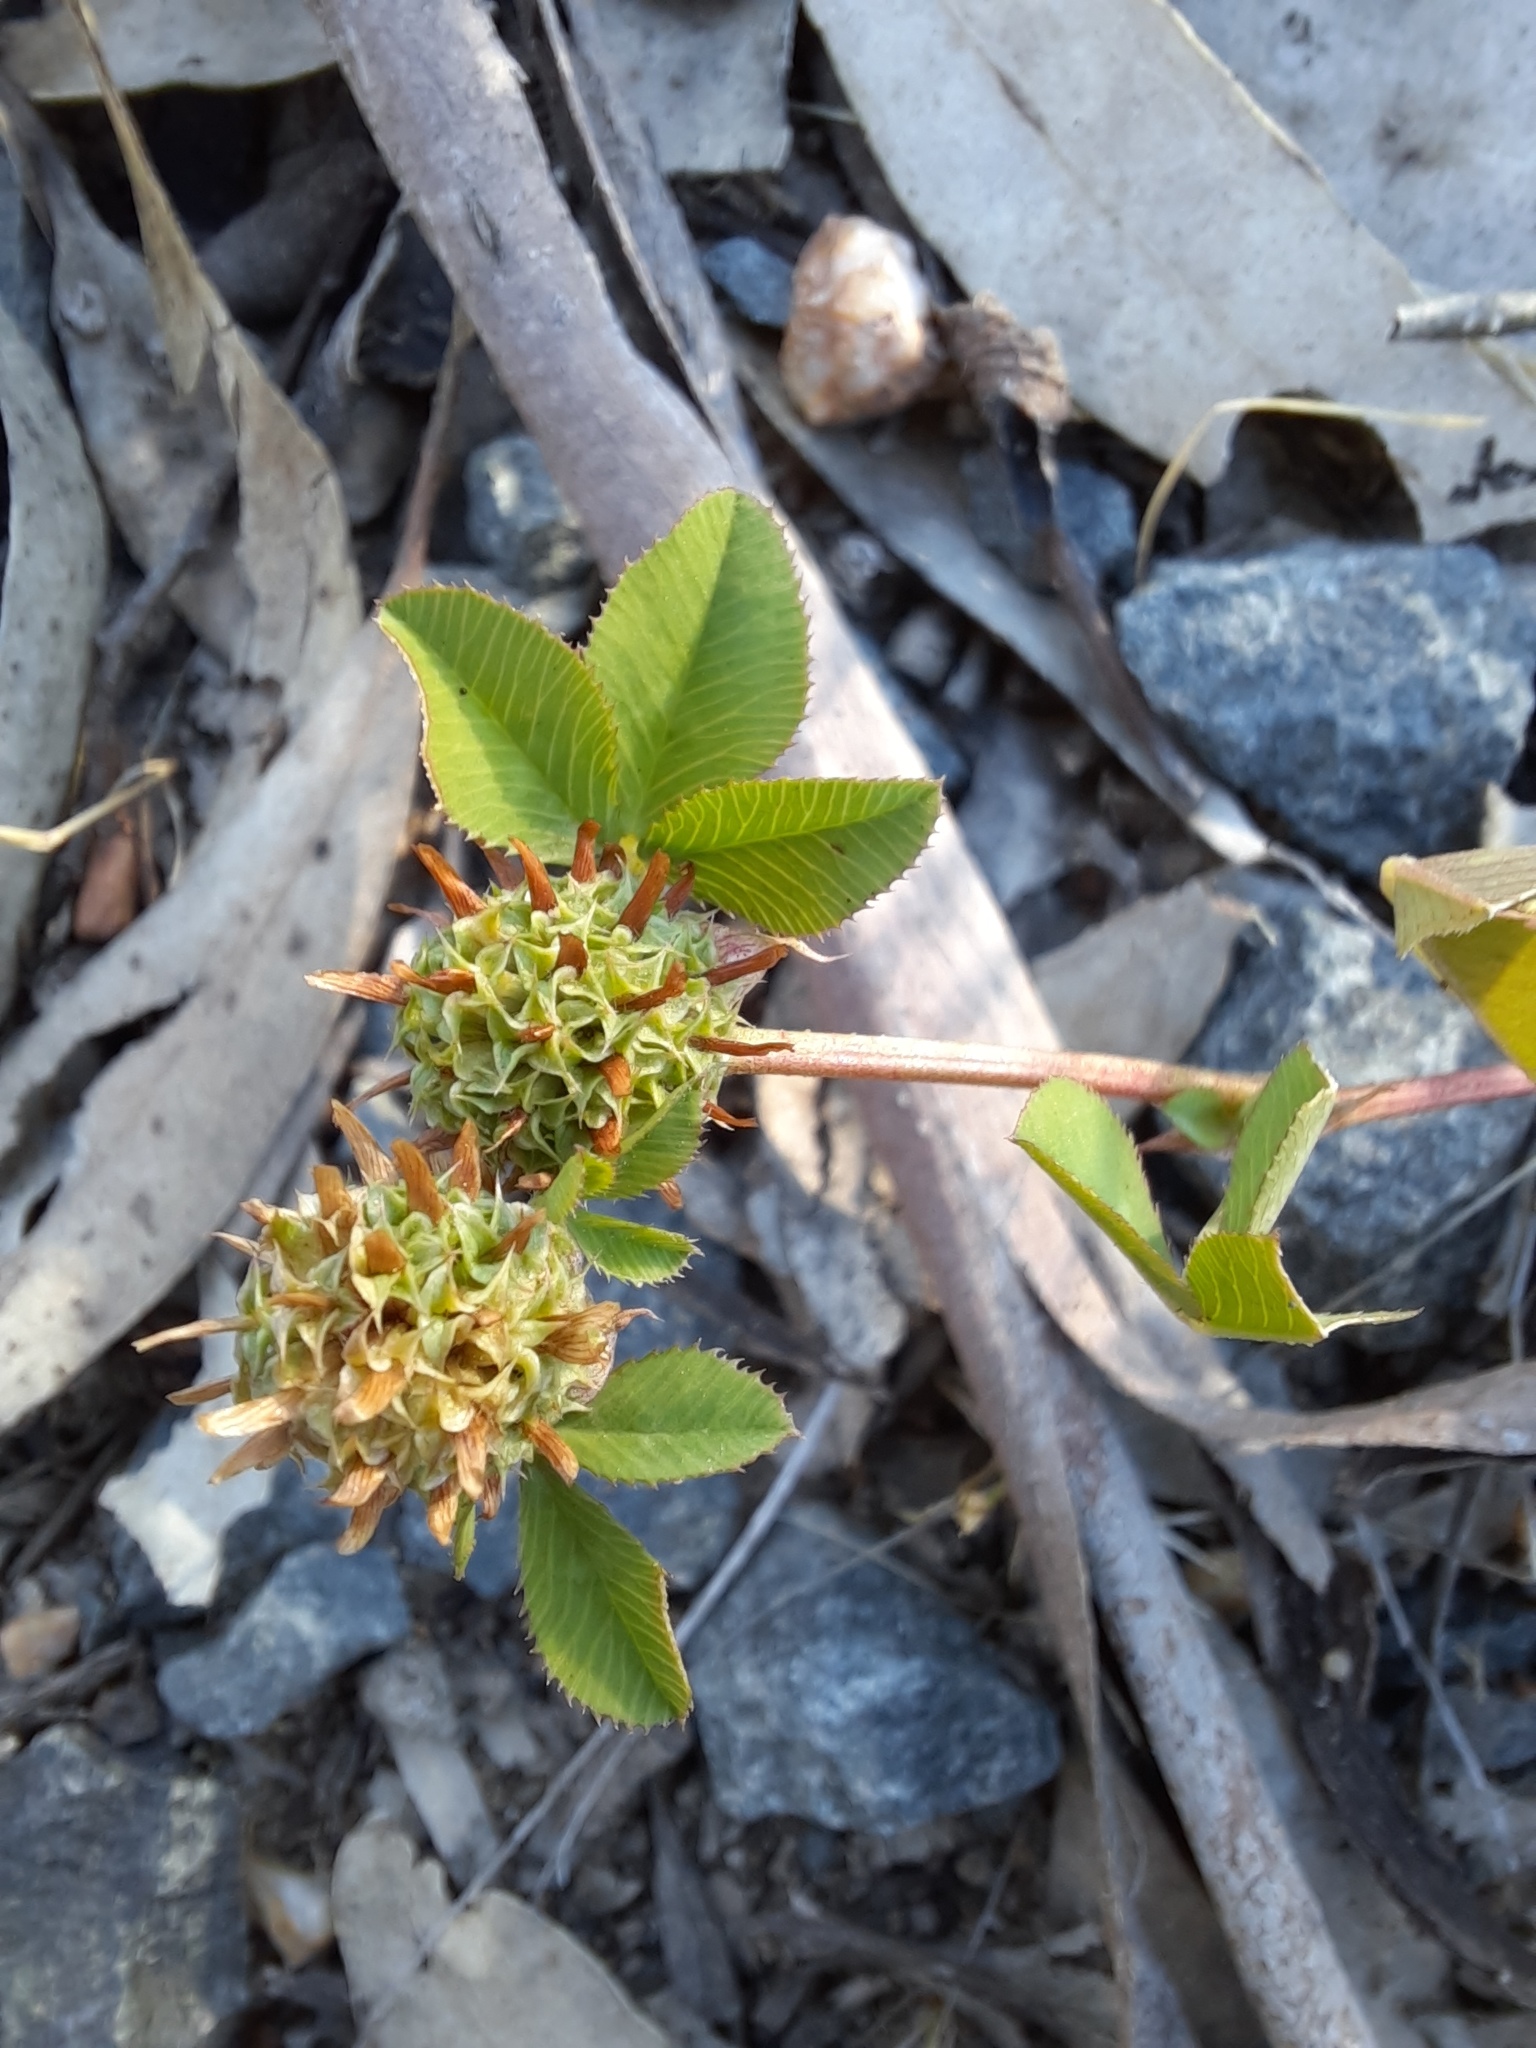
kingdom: Plantae
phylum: Tracheophyta
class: Magnoliopsida
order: Fabales
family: Fabaceae
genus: Trifolium
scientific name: Trifolium glomeratum
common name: Clustered clover
